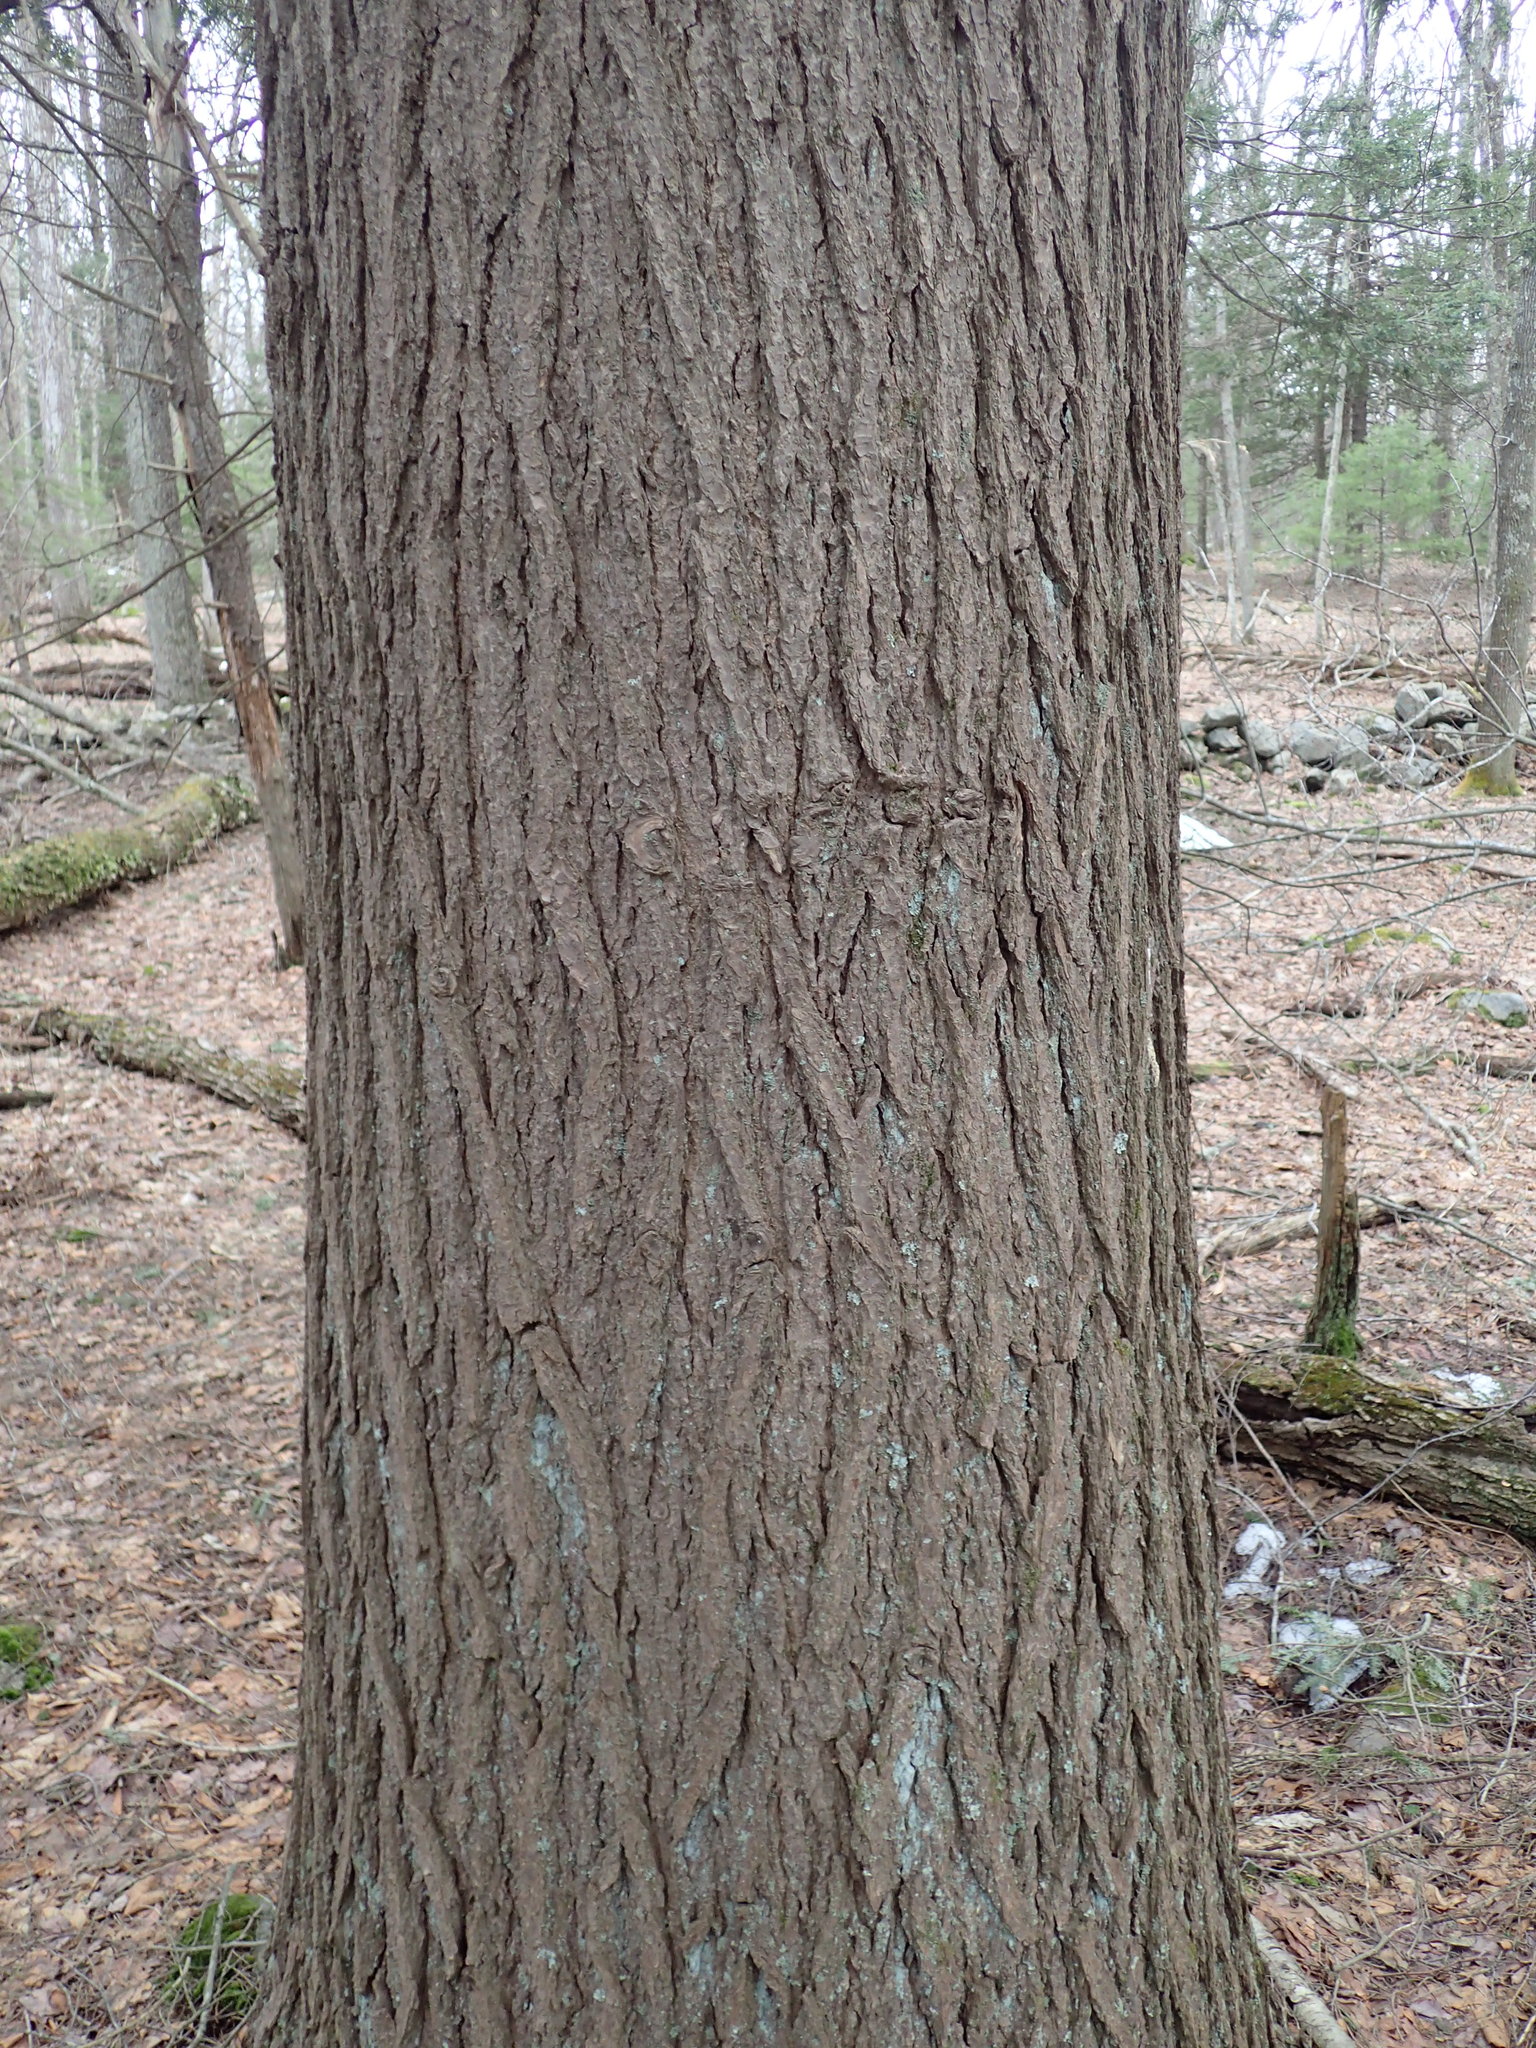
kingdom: Plantae
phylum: Tracheophyta
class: Pinopsida
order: Pinales
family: Pinaceae
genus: Tsuga
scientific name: Tsuga canadensis
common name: Eastern hemlock
